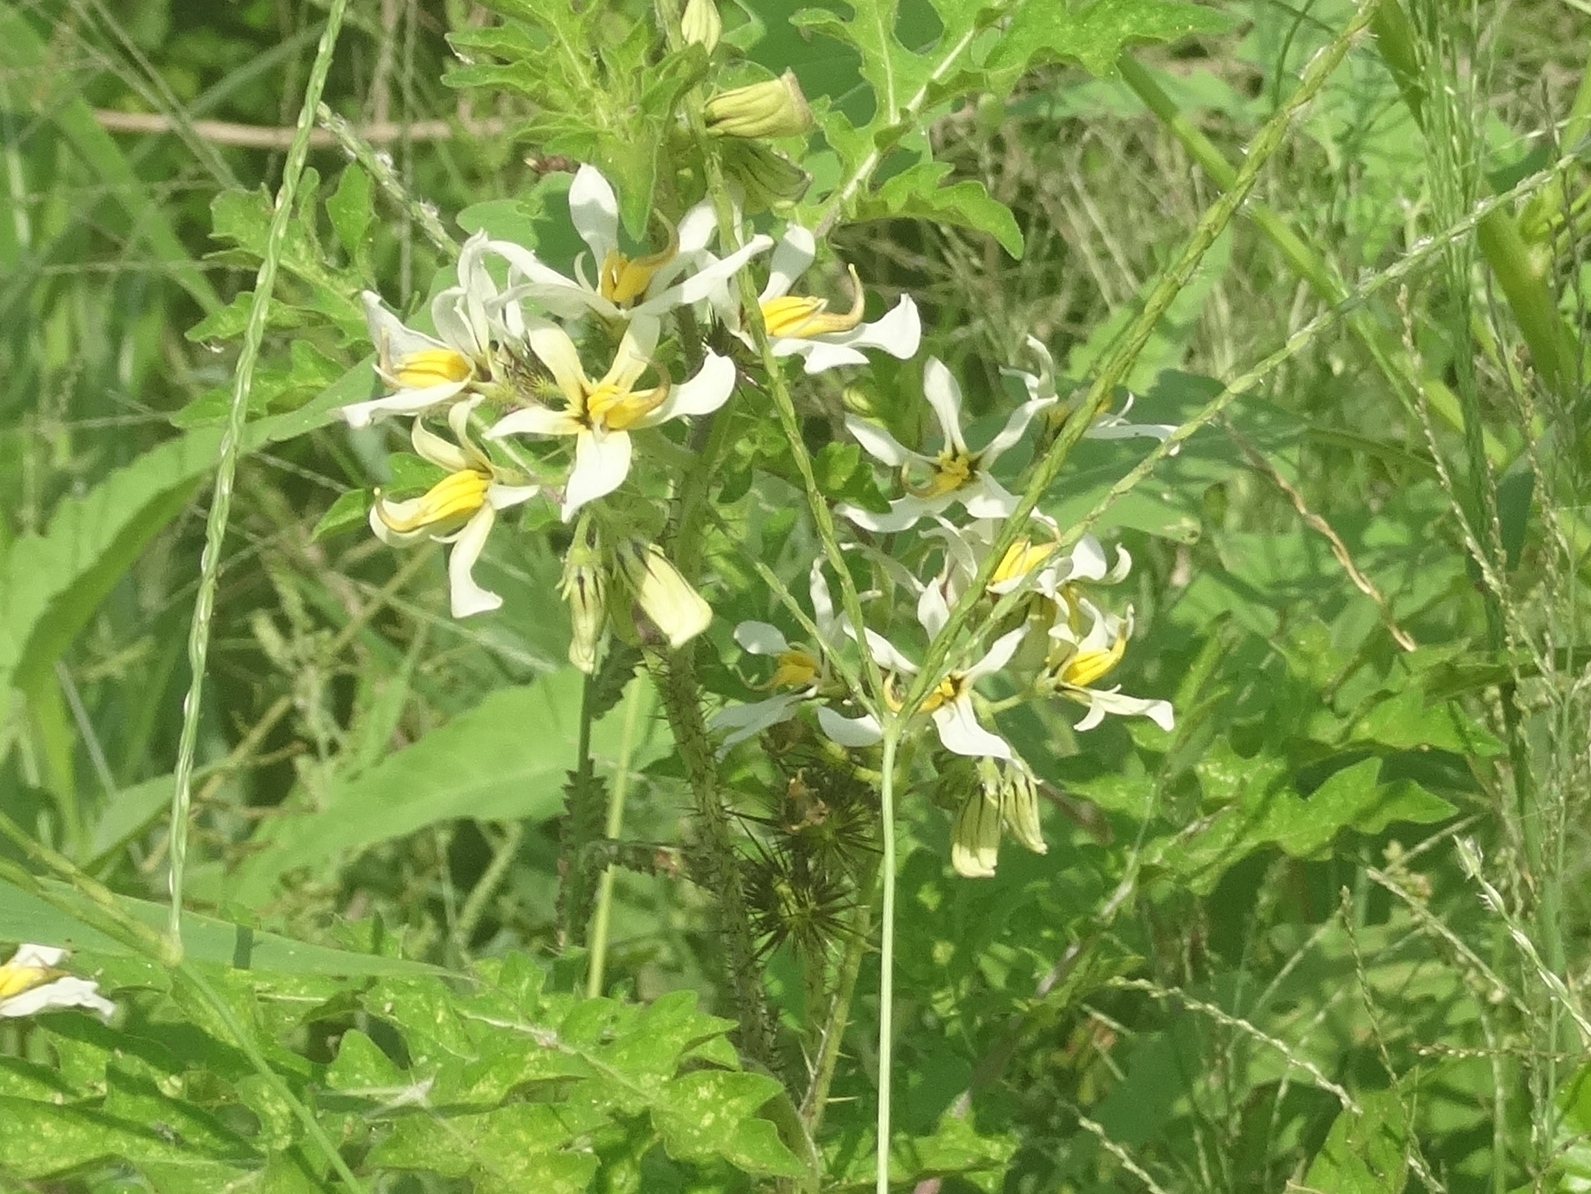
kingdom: Plantae
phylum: Tracheophyta
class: Magnoliopsida
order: Solanales
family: Solanaceae
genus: Solanum
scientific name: Solanum grayi
